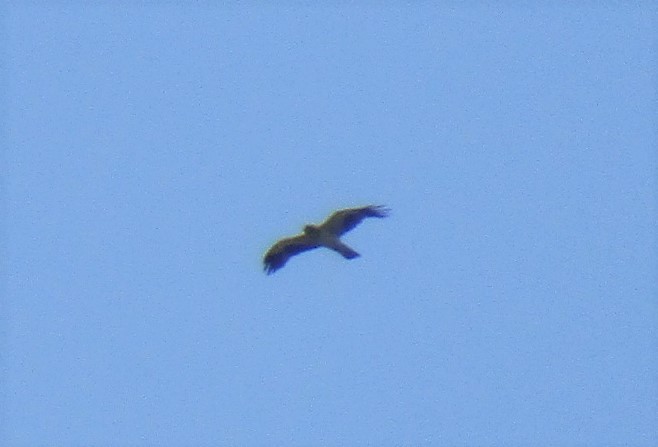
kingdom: Animalia
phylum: Chordata
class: Aves
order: Accipitriformes
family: Accipitridae
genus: Hieraaetus
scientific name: Hieraaetus pennatus
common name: Booted eagle
